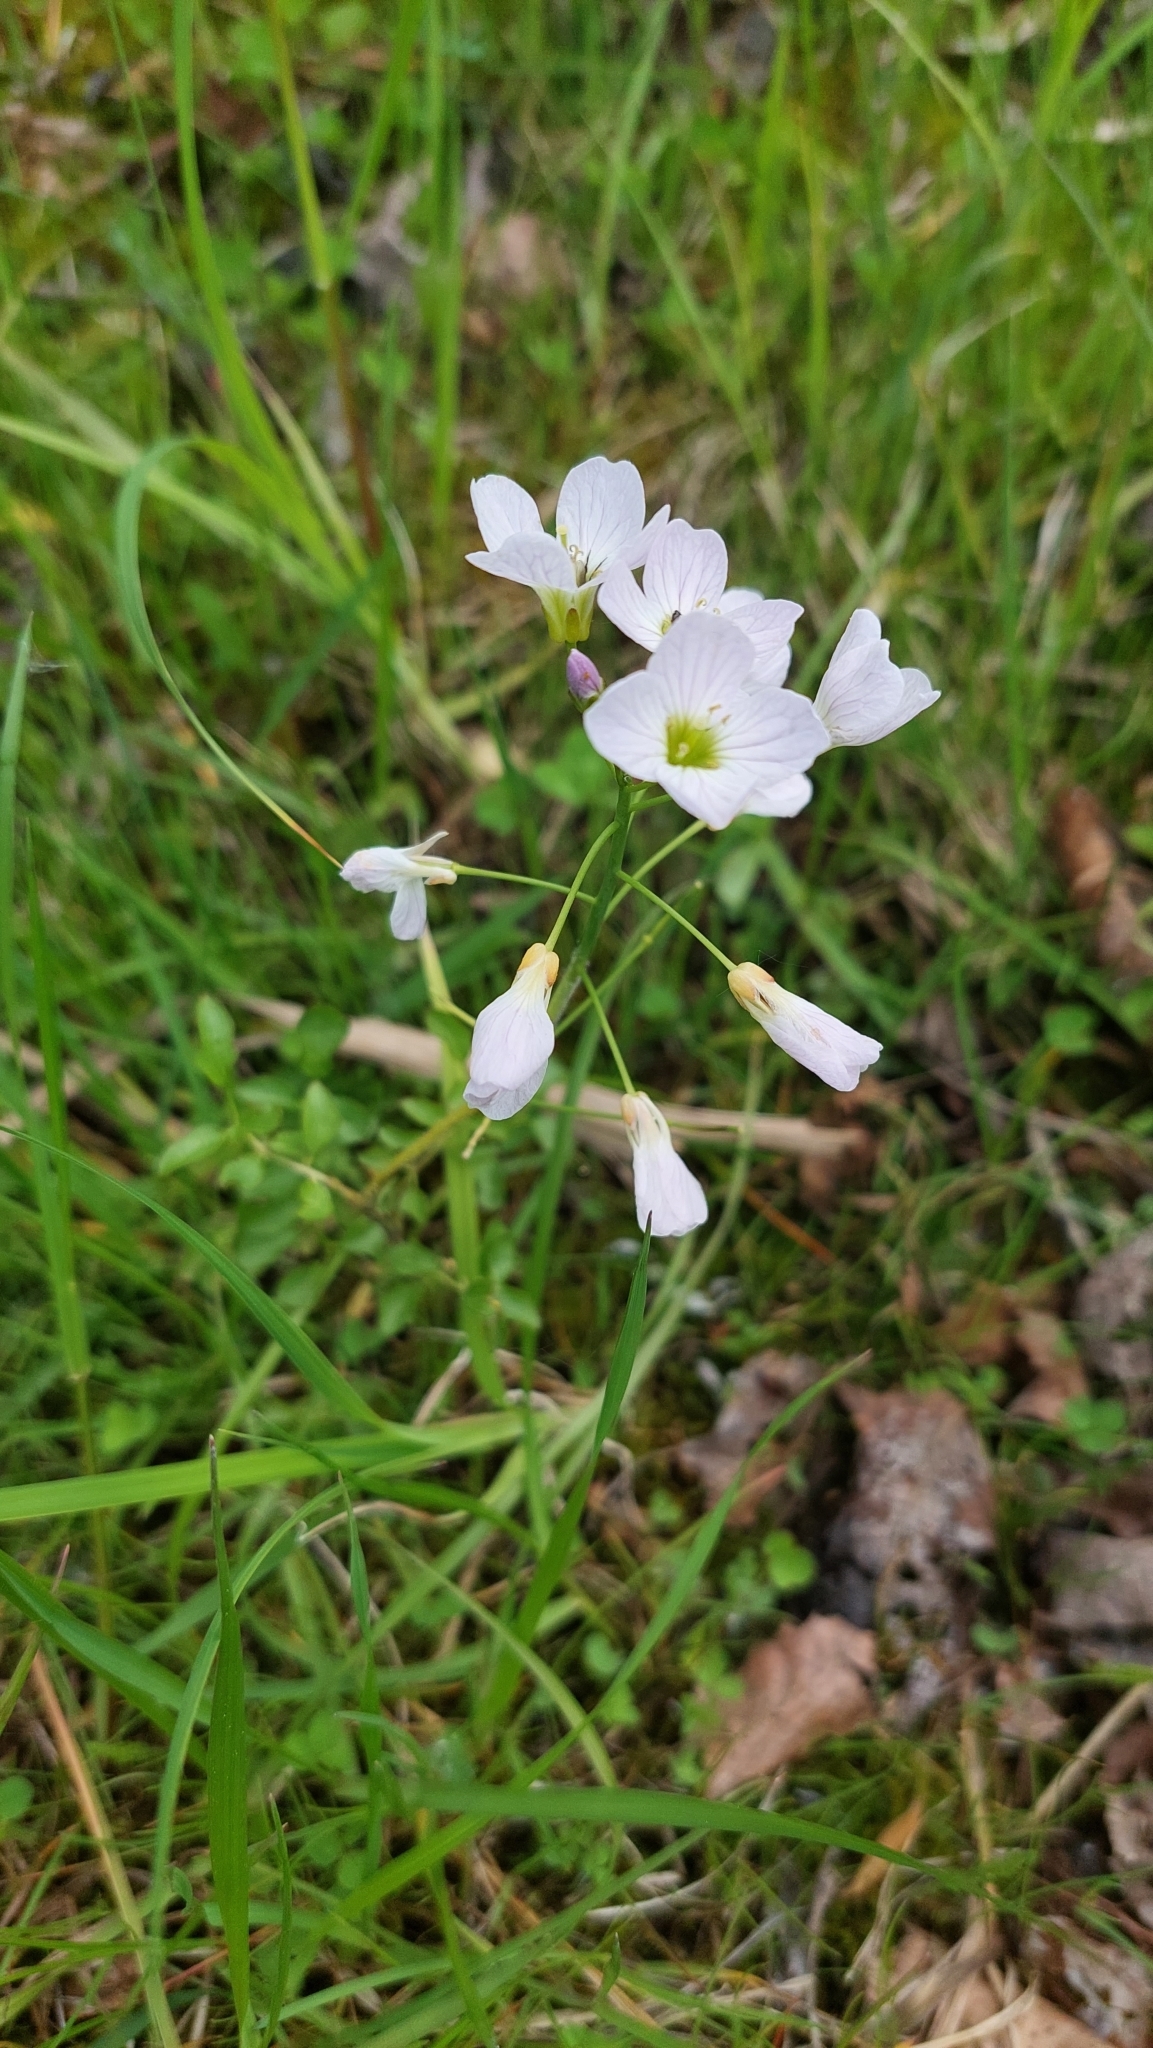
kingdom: Plantae
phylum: Tracheophyta
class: Magnoliopsida
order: Brassicales
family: Brassicaceae
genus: Cardamine
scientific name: Cardamine dentata
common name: Toothed bittercress
